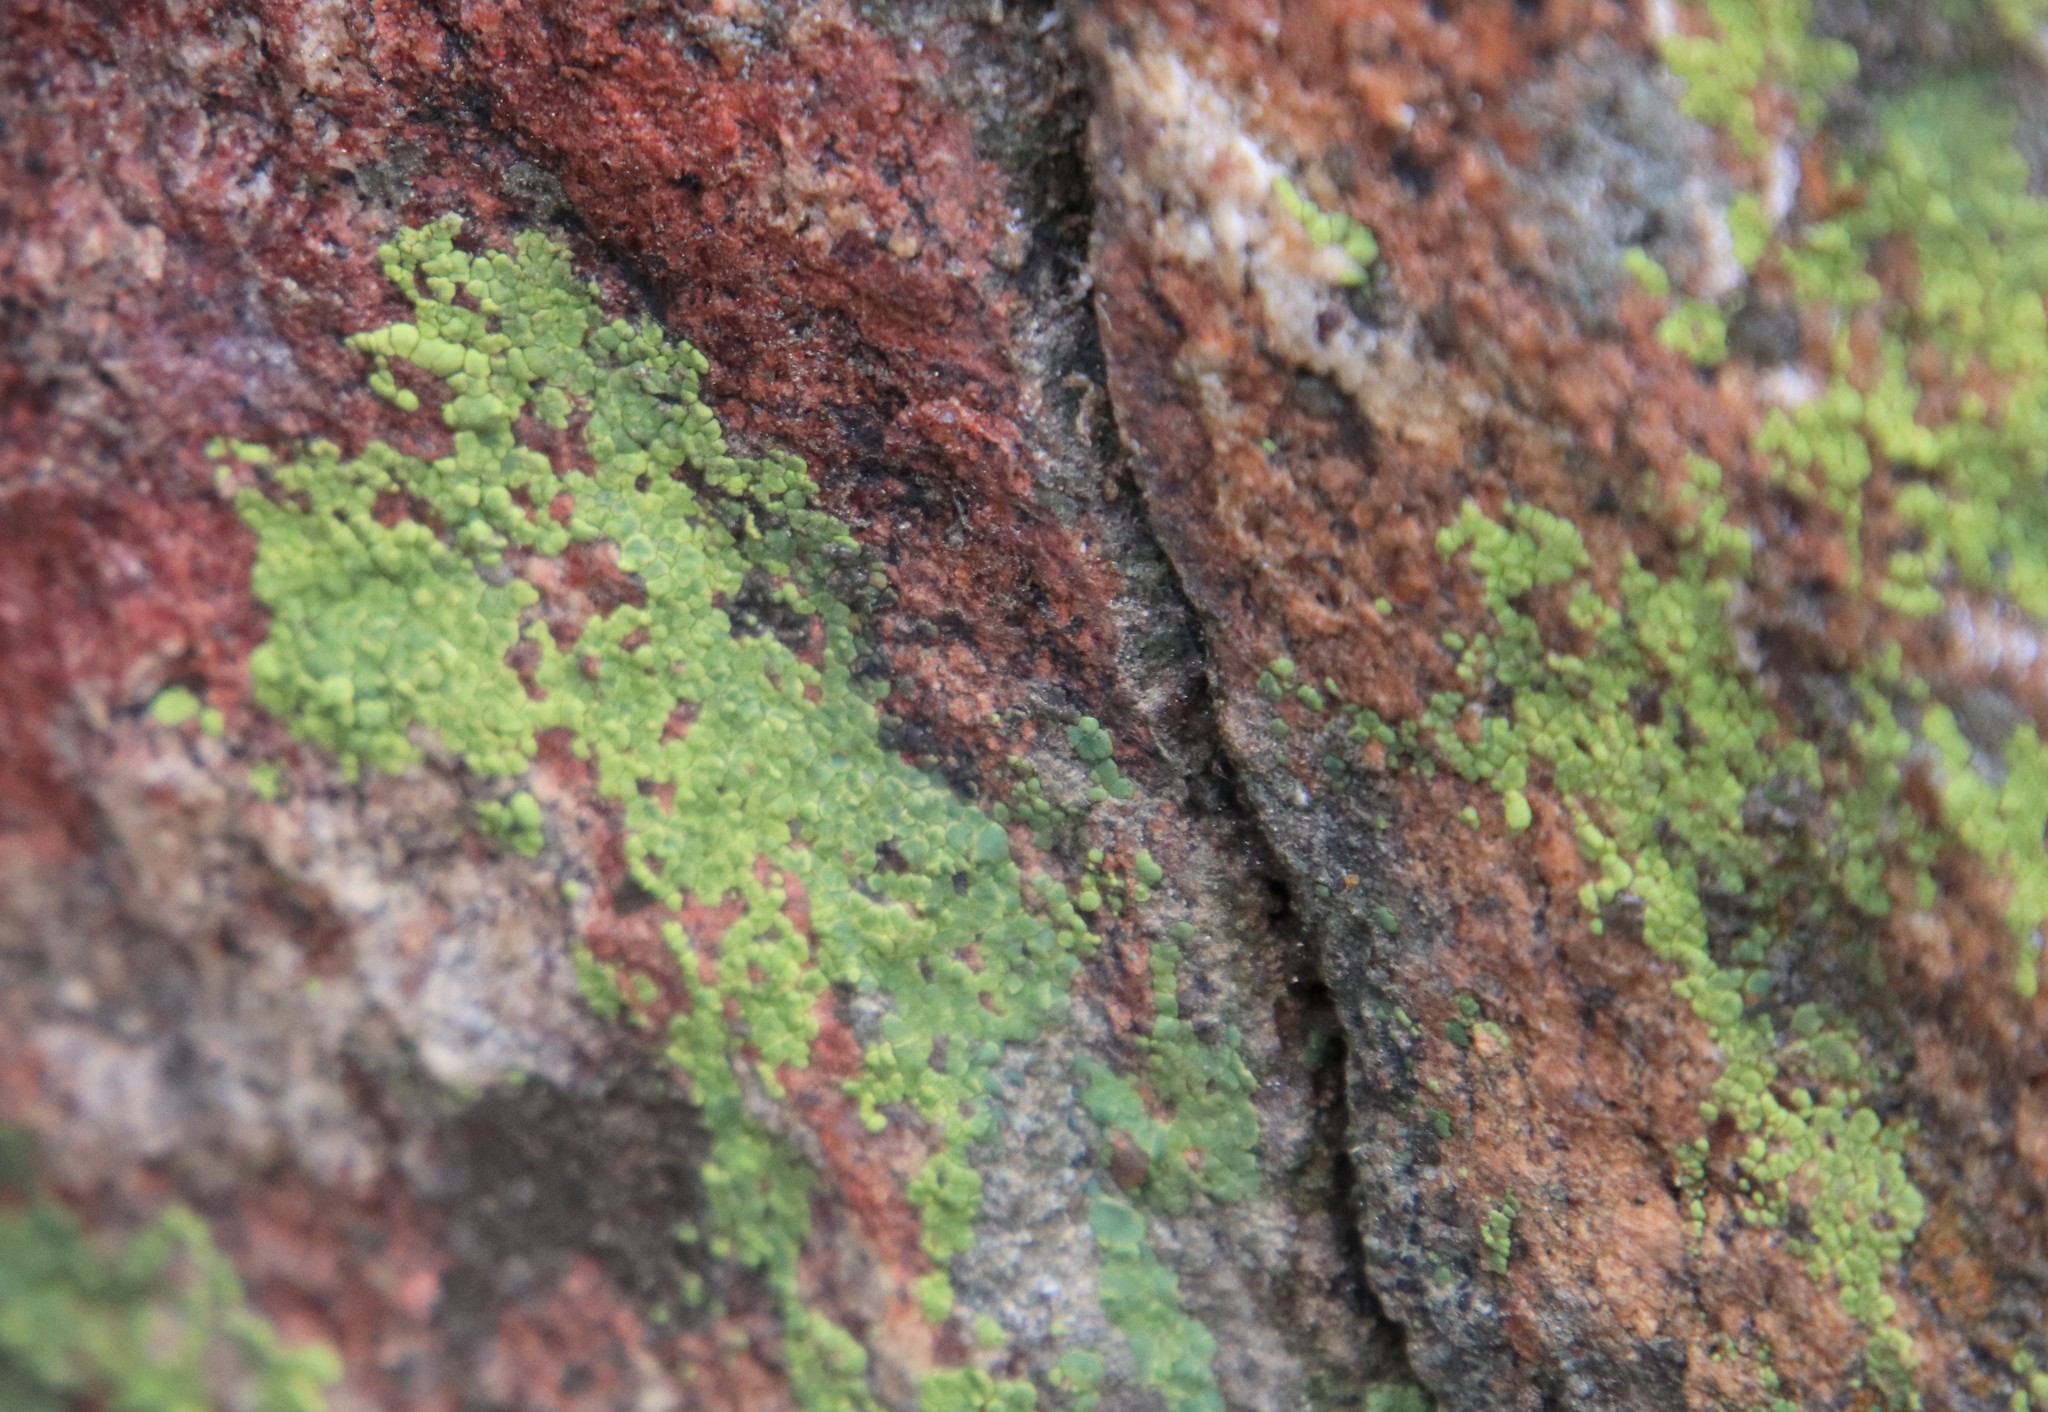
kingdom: Fungi
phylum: Ascomycota
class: Lecanoromycetes
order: Acarosporales
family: Acarosporaceae
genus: Acarospora
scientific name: Acarospora socialis
